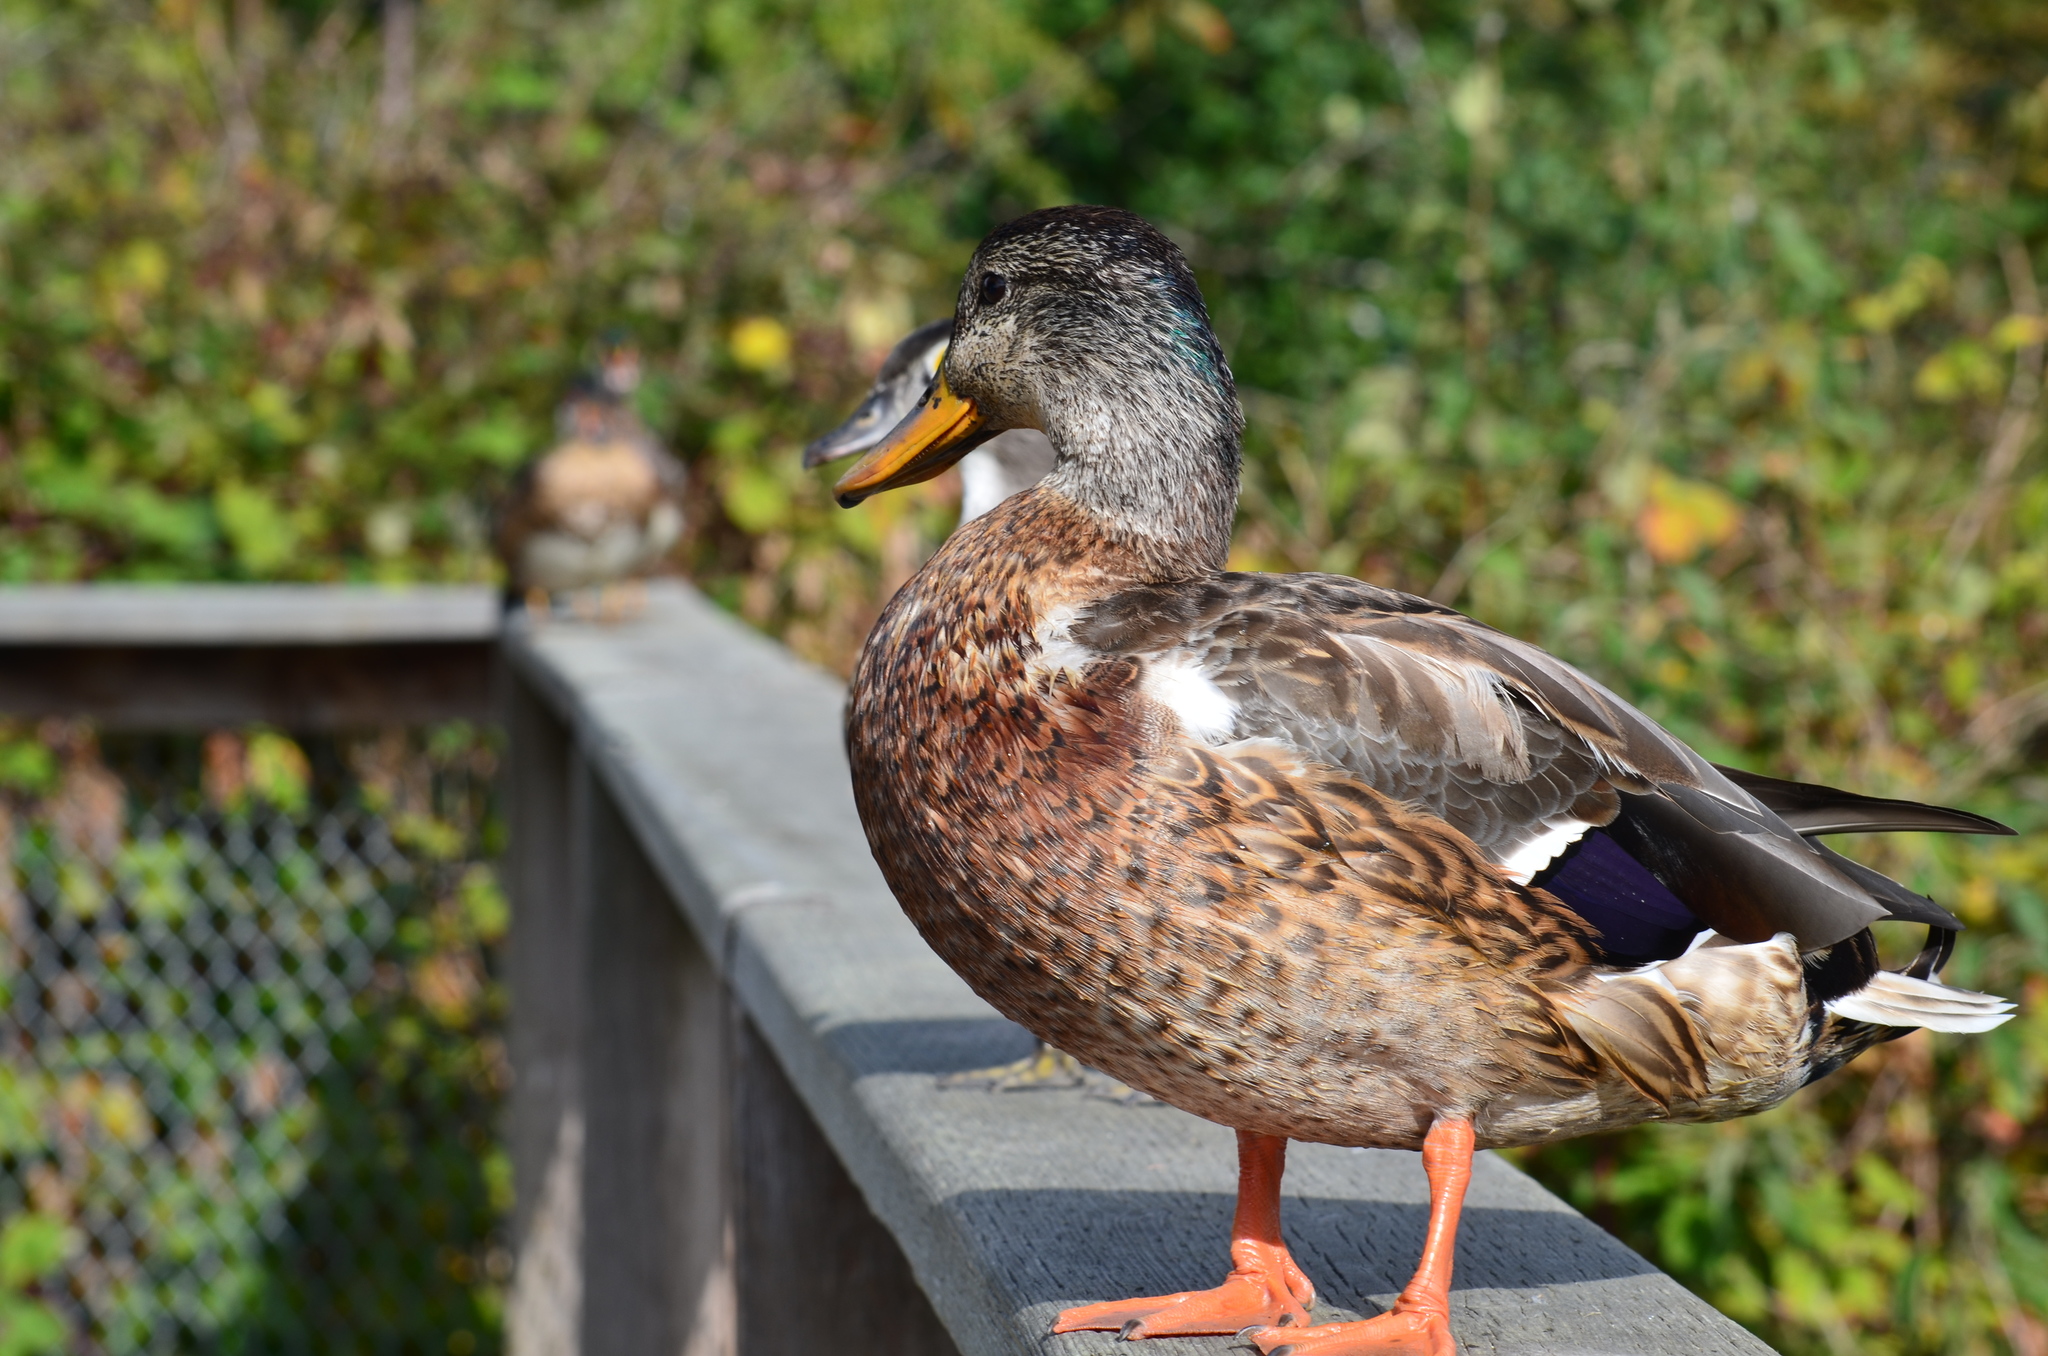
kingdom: Animalia
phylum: Chordata
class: Aves
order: Anseriformes
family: Anatidae
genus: Anas
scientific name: Anas platyrhynchos
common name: Mallard
